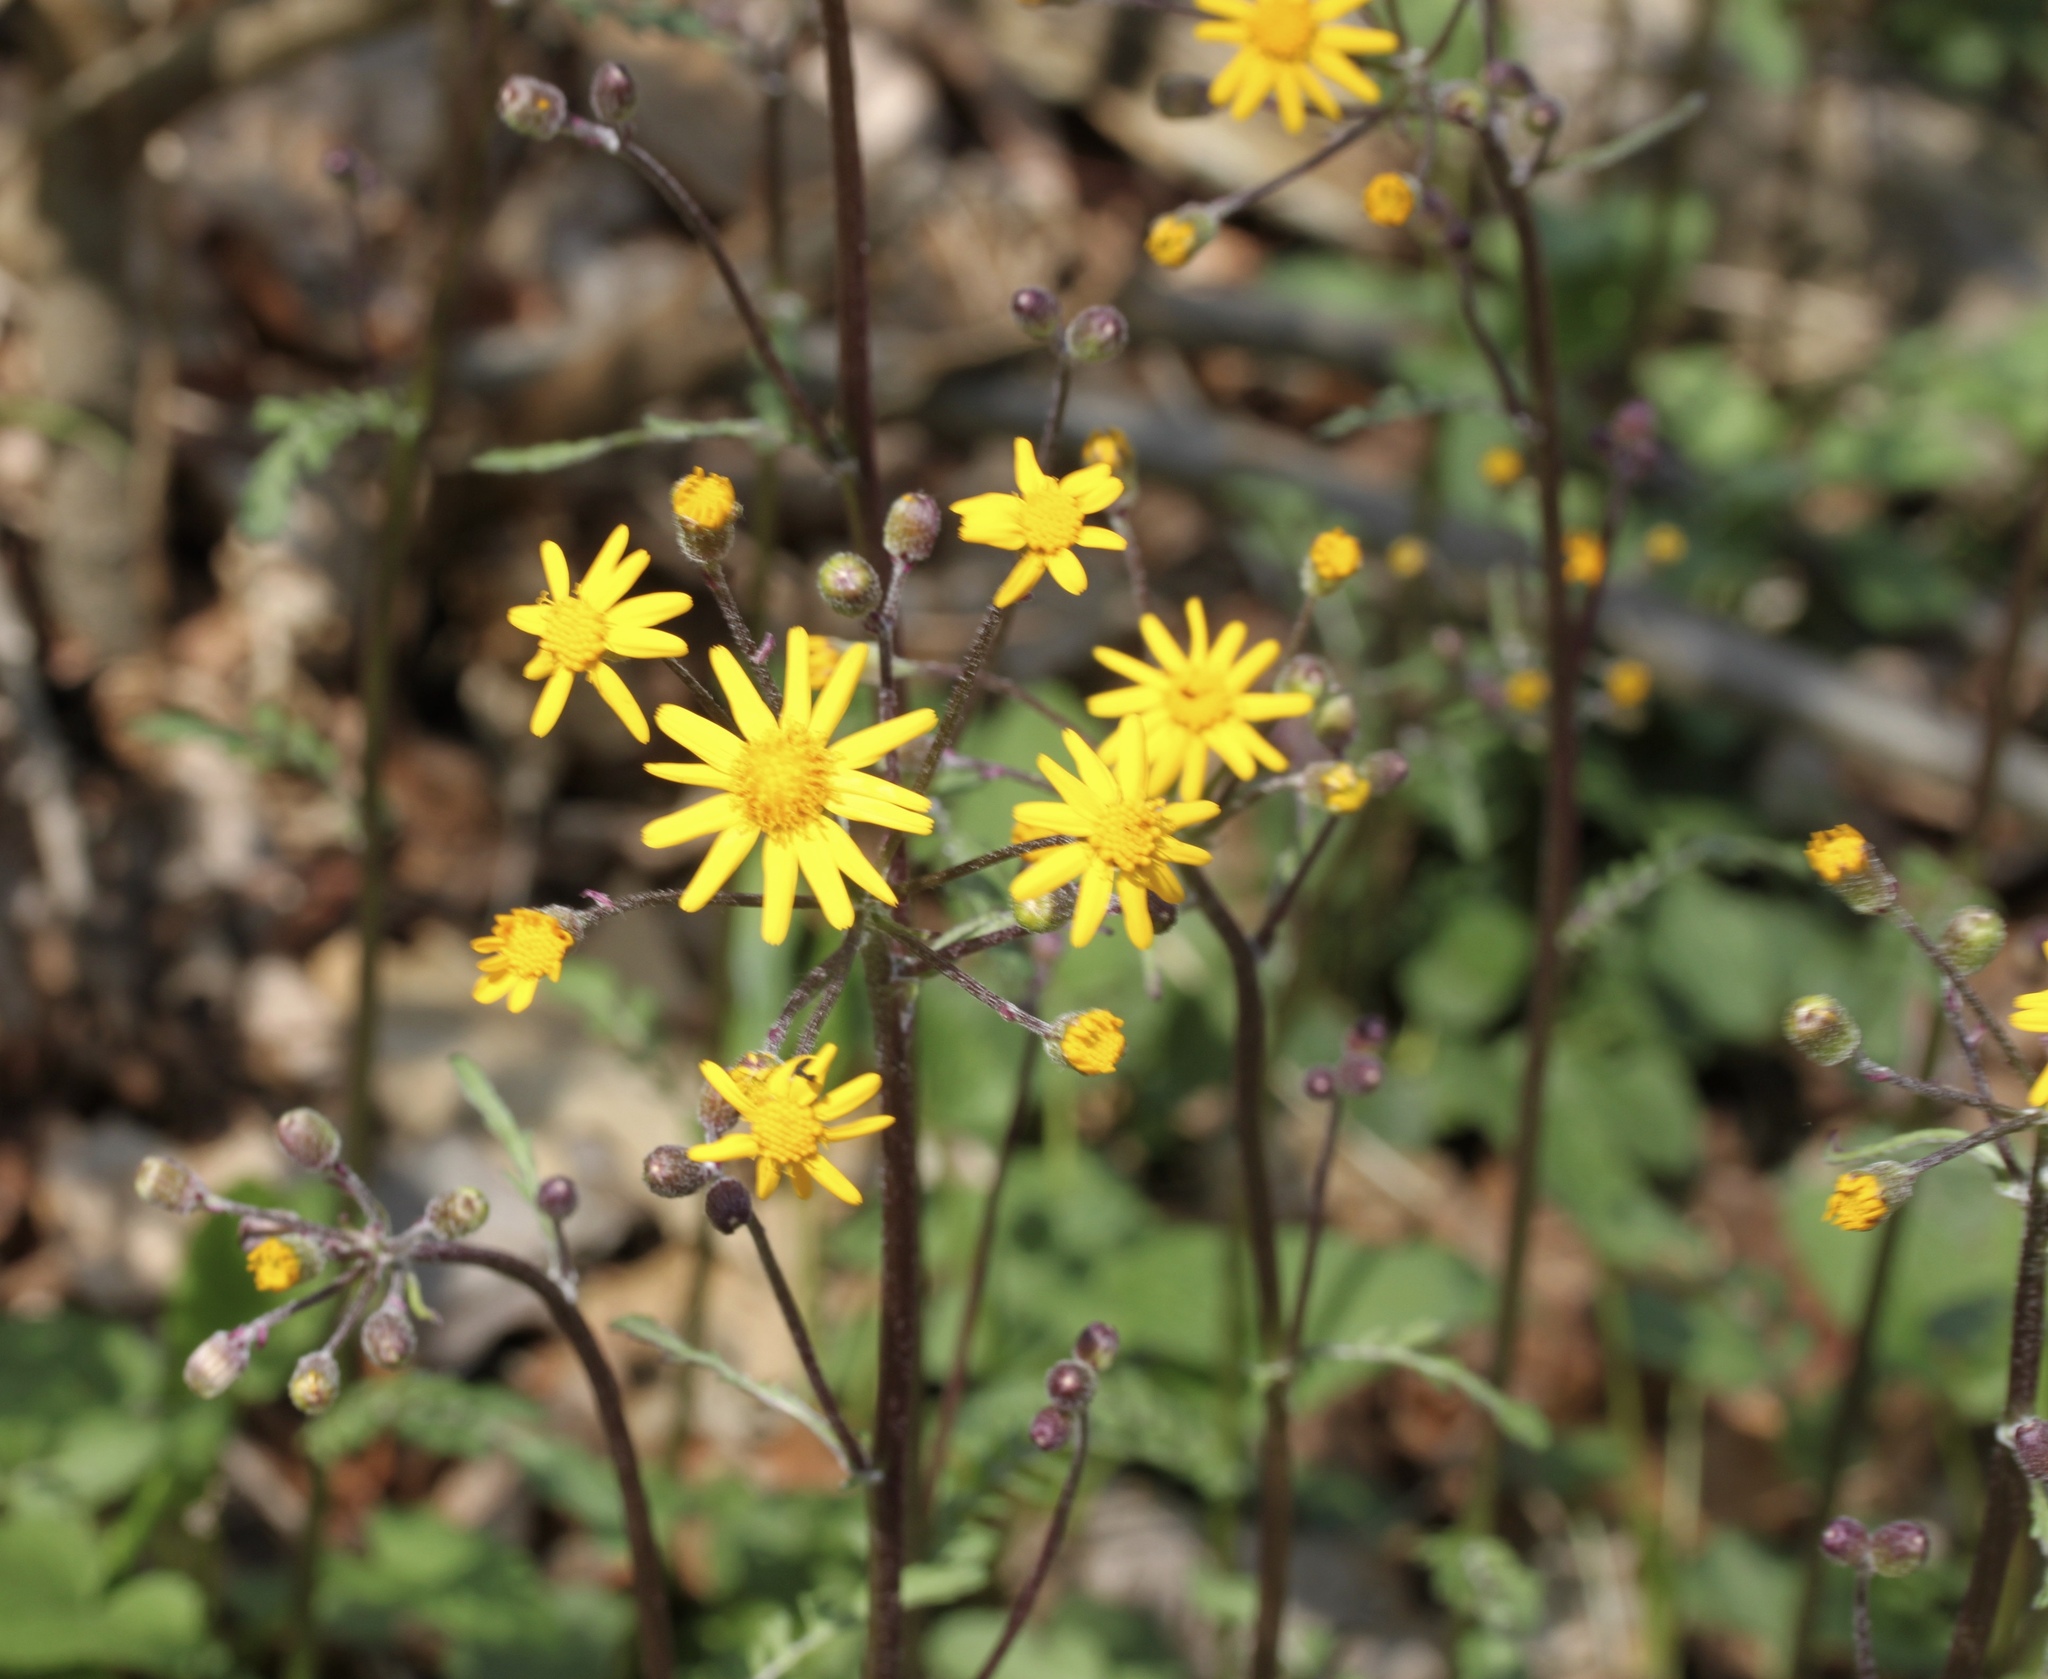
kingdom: Plantae
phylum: Tracheophyta
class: Magnoliopsida
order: Asterales
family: Asteraceae
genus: Packera
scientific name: Packera aurea
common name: Golden groundsel
